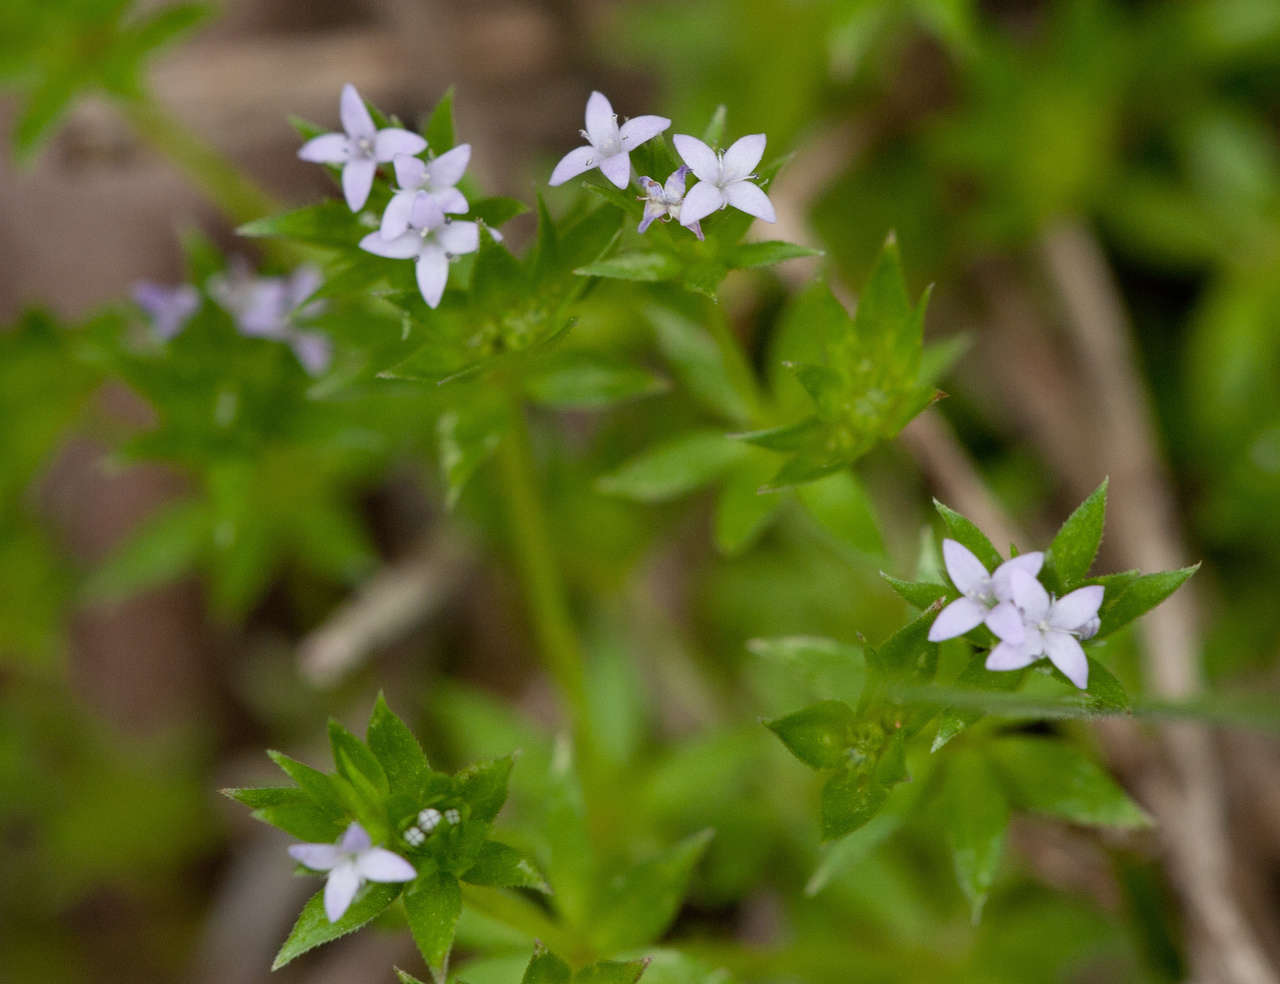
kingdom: Plantae
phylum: Tracheophyta
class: Magnoliopsida
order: Gentianales
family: Rubiaceae
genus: Sherardia
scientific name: Sherardia arvensis
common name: Field madder
